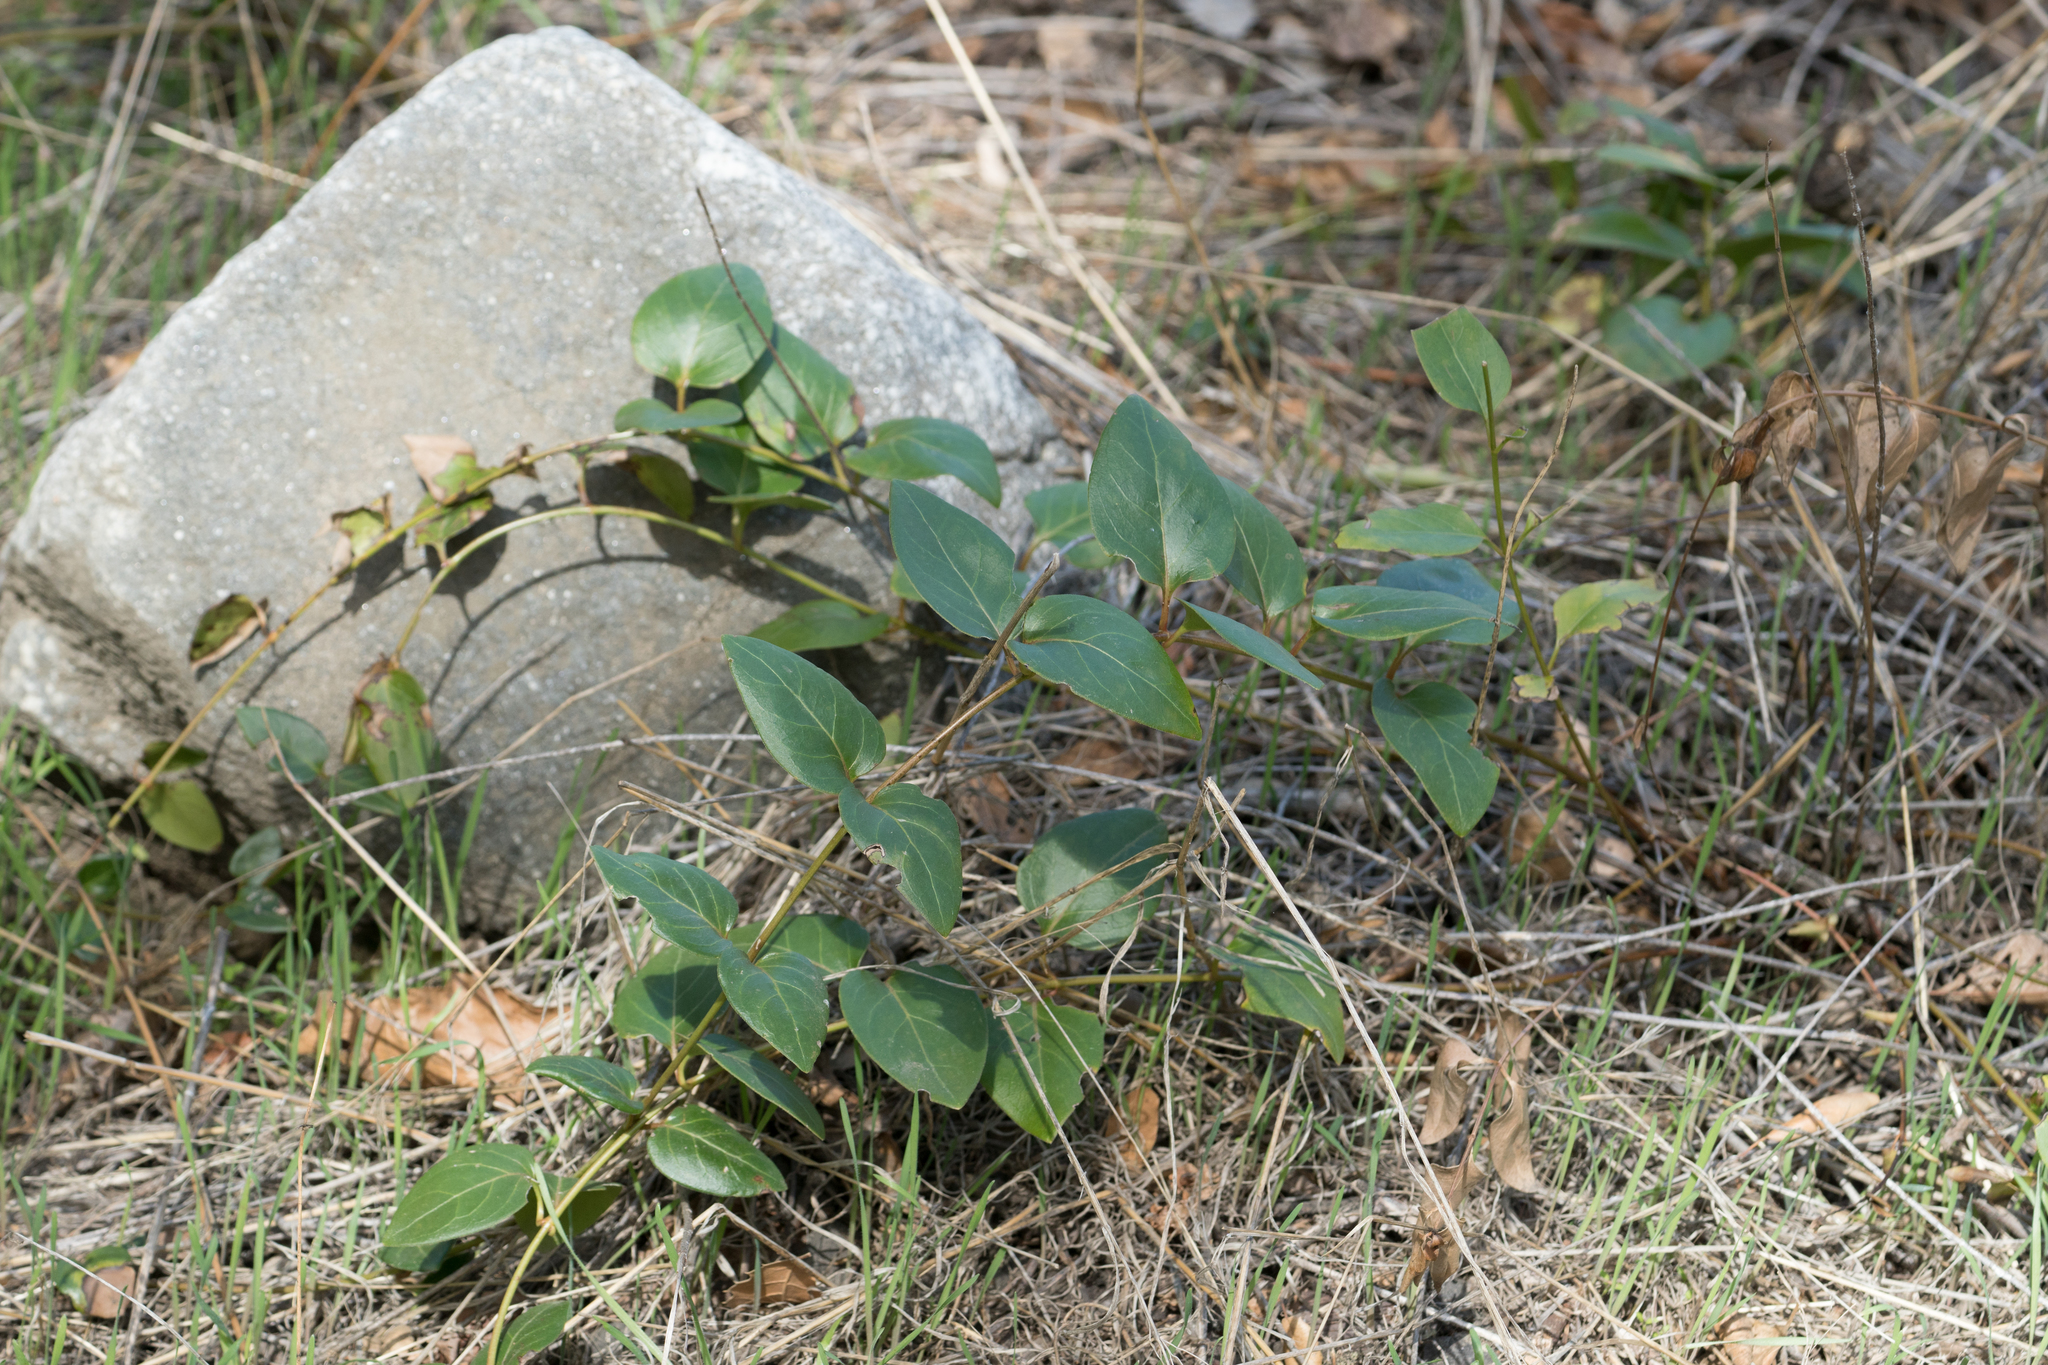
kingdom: Plantae
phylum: Tracheophyta
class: Magnoliopsida
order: Gentianales
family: Apocynaceae
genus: Vinca
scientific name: Vinca major
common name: Greater periwinkle
